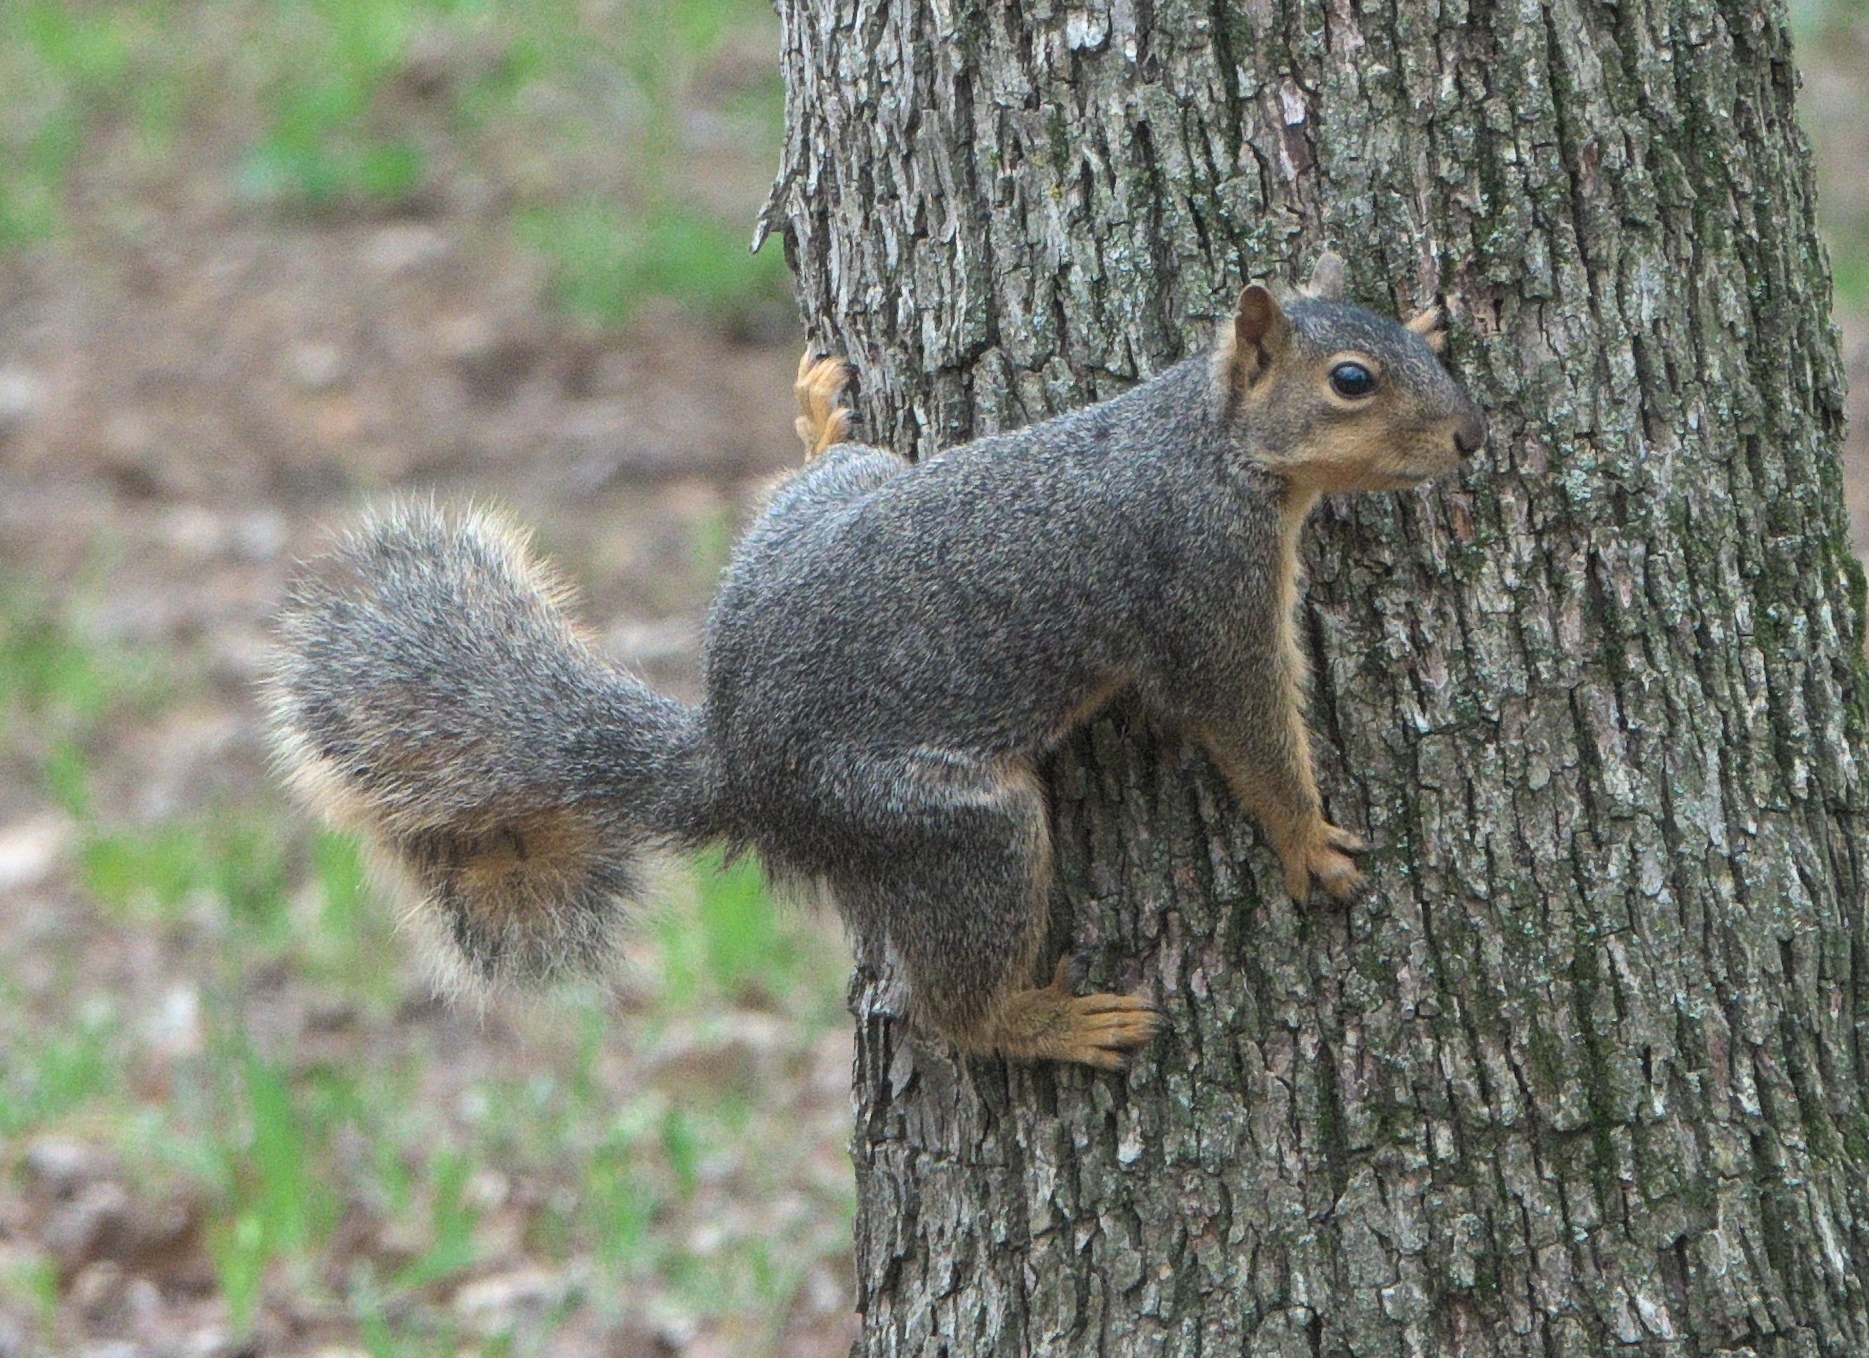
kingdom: Animalia
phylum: Chordata
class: Mammalia
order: Rodentia
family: Sciuridae
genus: Sciurus
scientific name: Sciurus niger
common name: Fox squirrel
